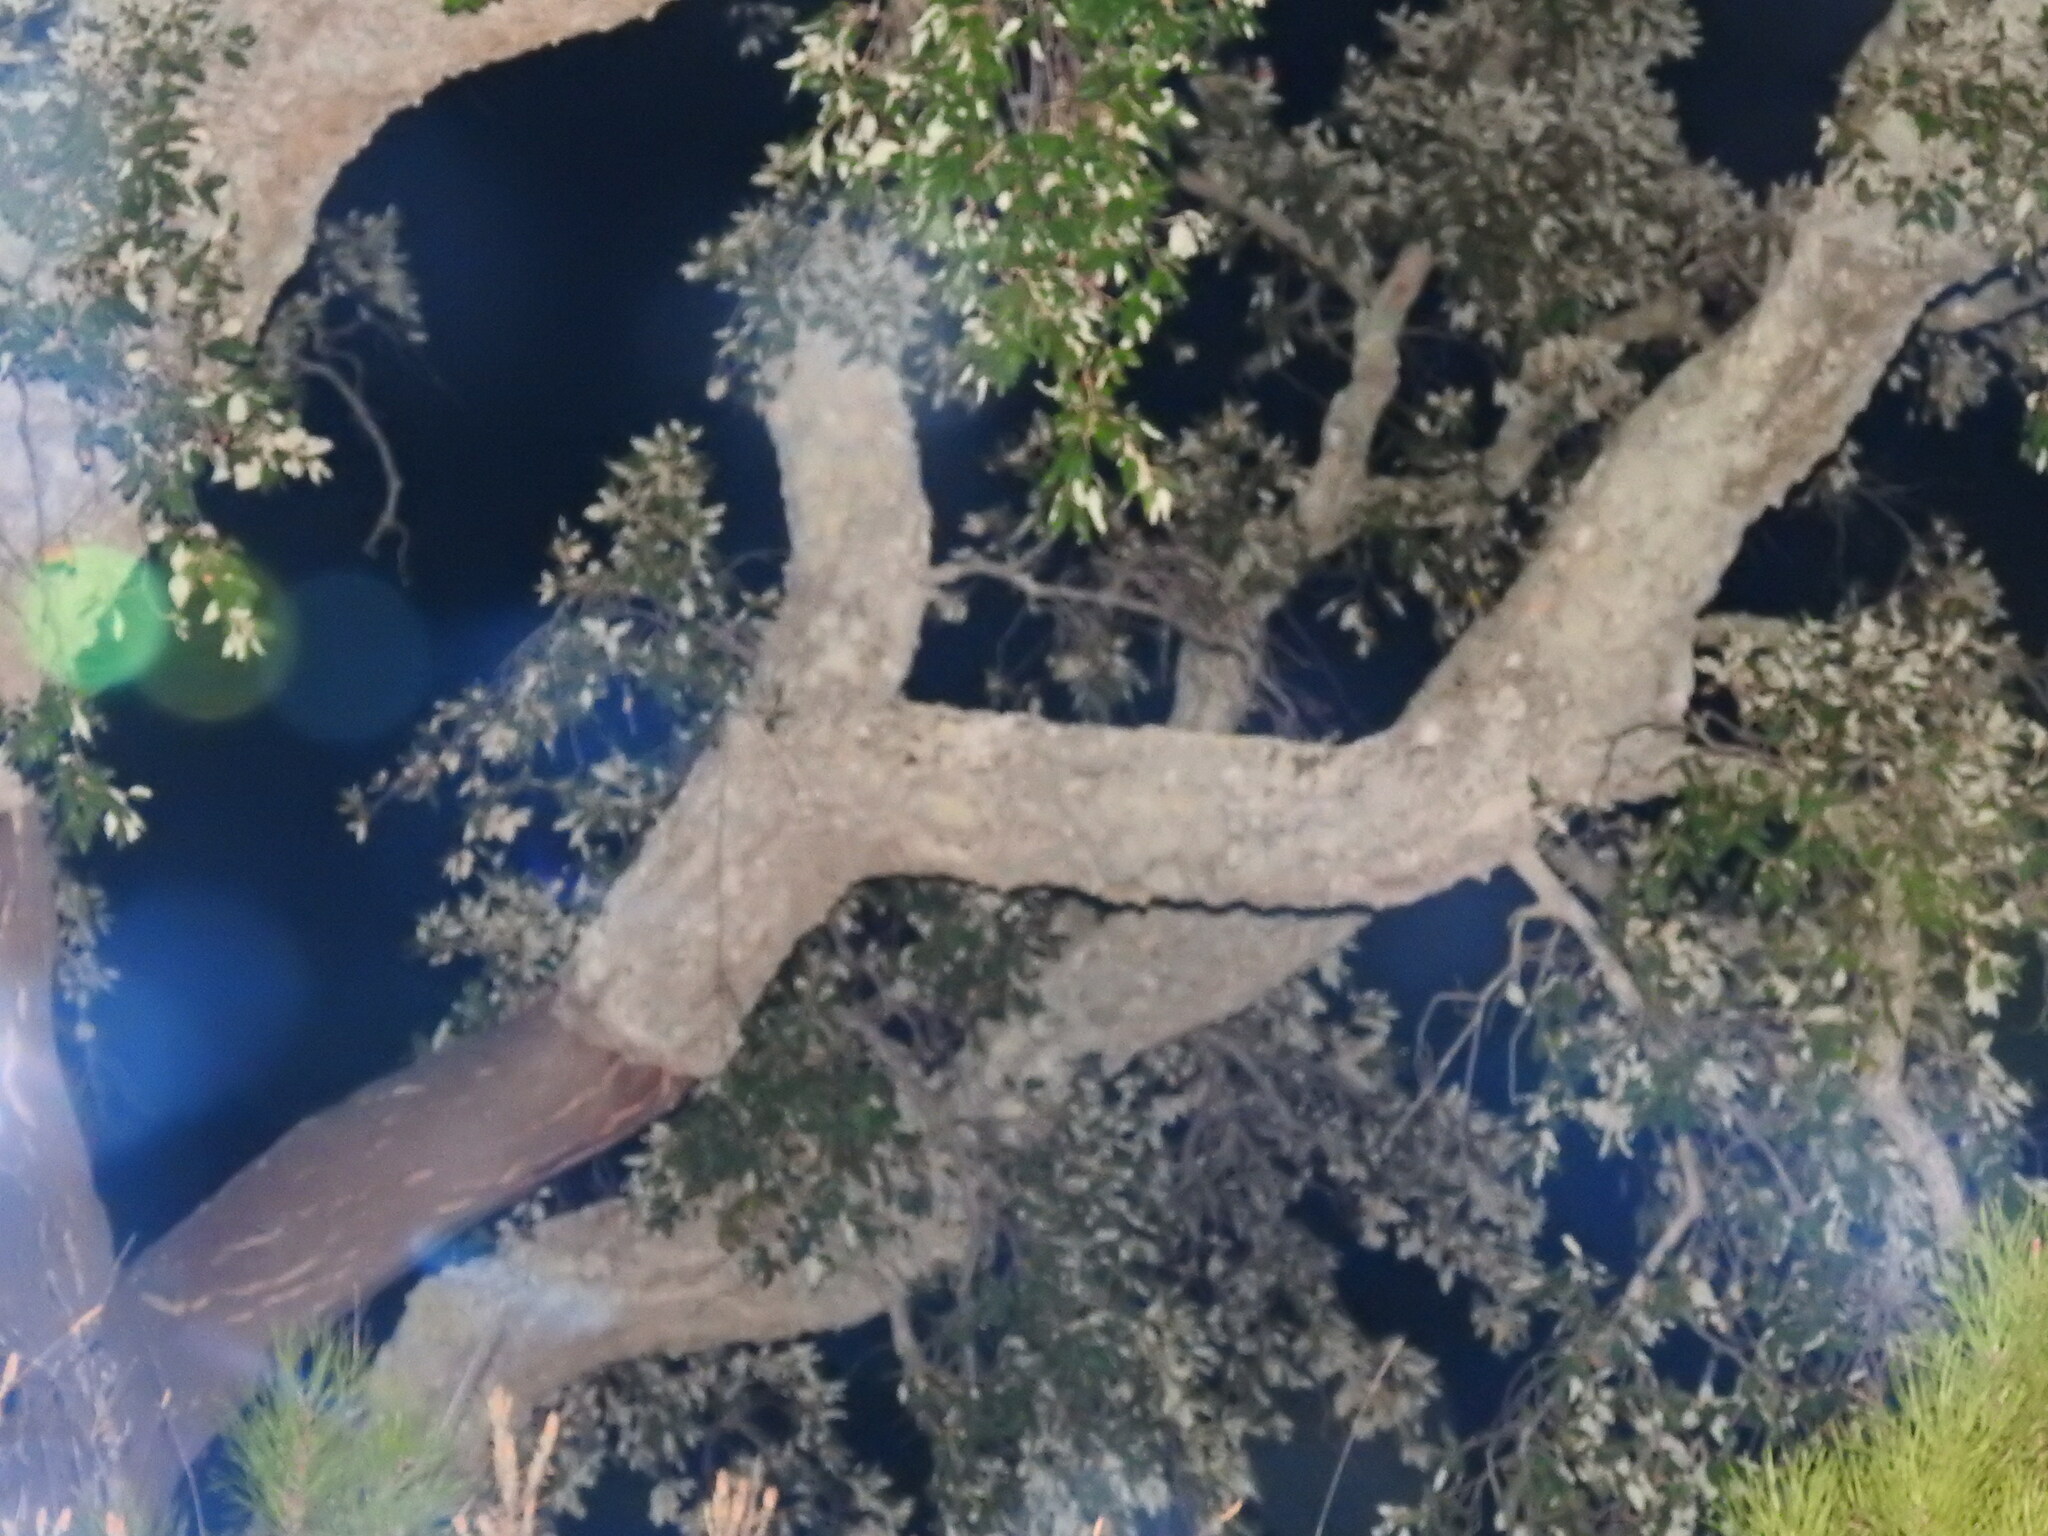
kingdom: Plantae
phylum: Tracheophyta
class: Magnoliopsida
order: Fagales
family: Fagaceae
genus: Quercus
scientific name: Quercus suber
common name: Cork oak
